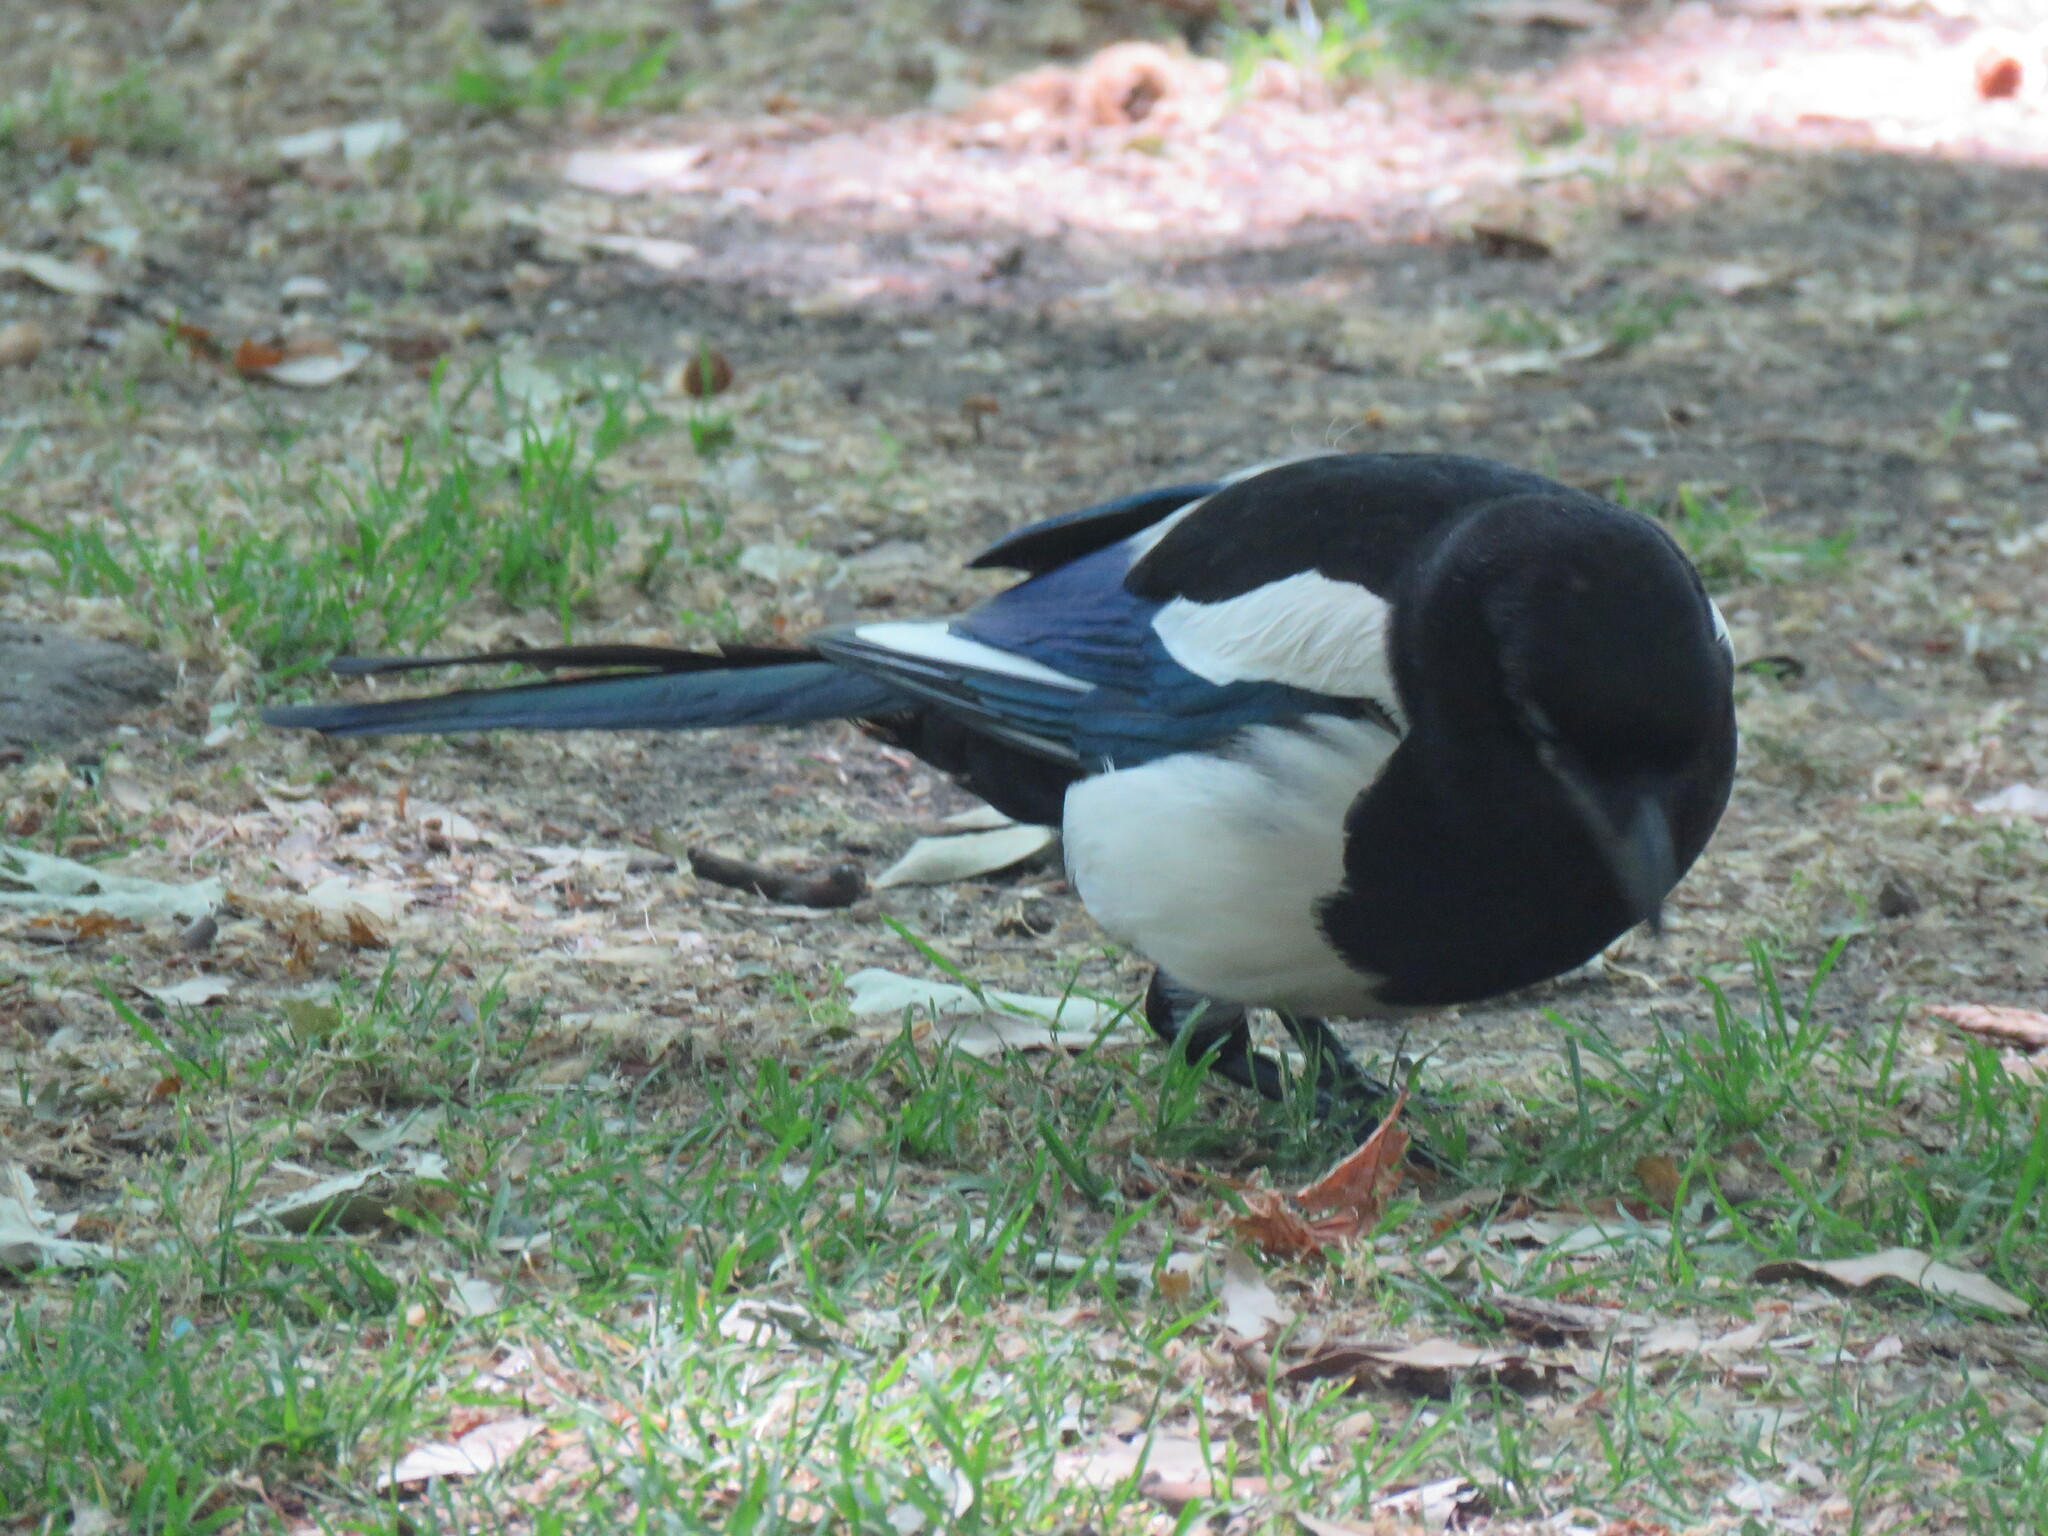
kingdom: Animalia
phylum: Chordata
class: Aves
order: Passeriformes
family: Corvidae
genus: Pica
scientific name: Pica pica
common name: Eurasian magpie
